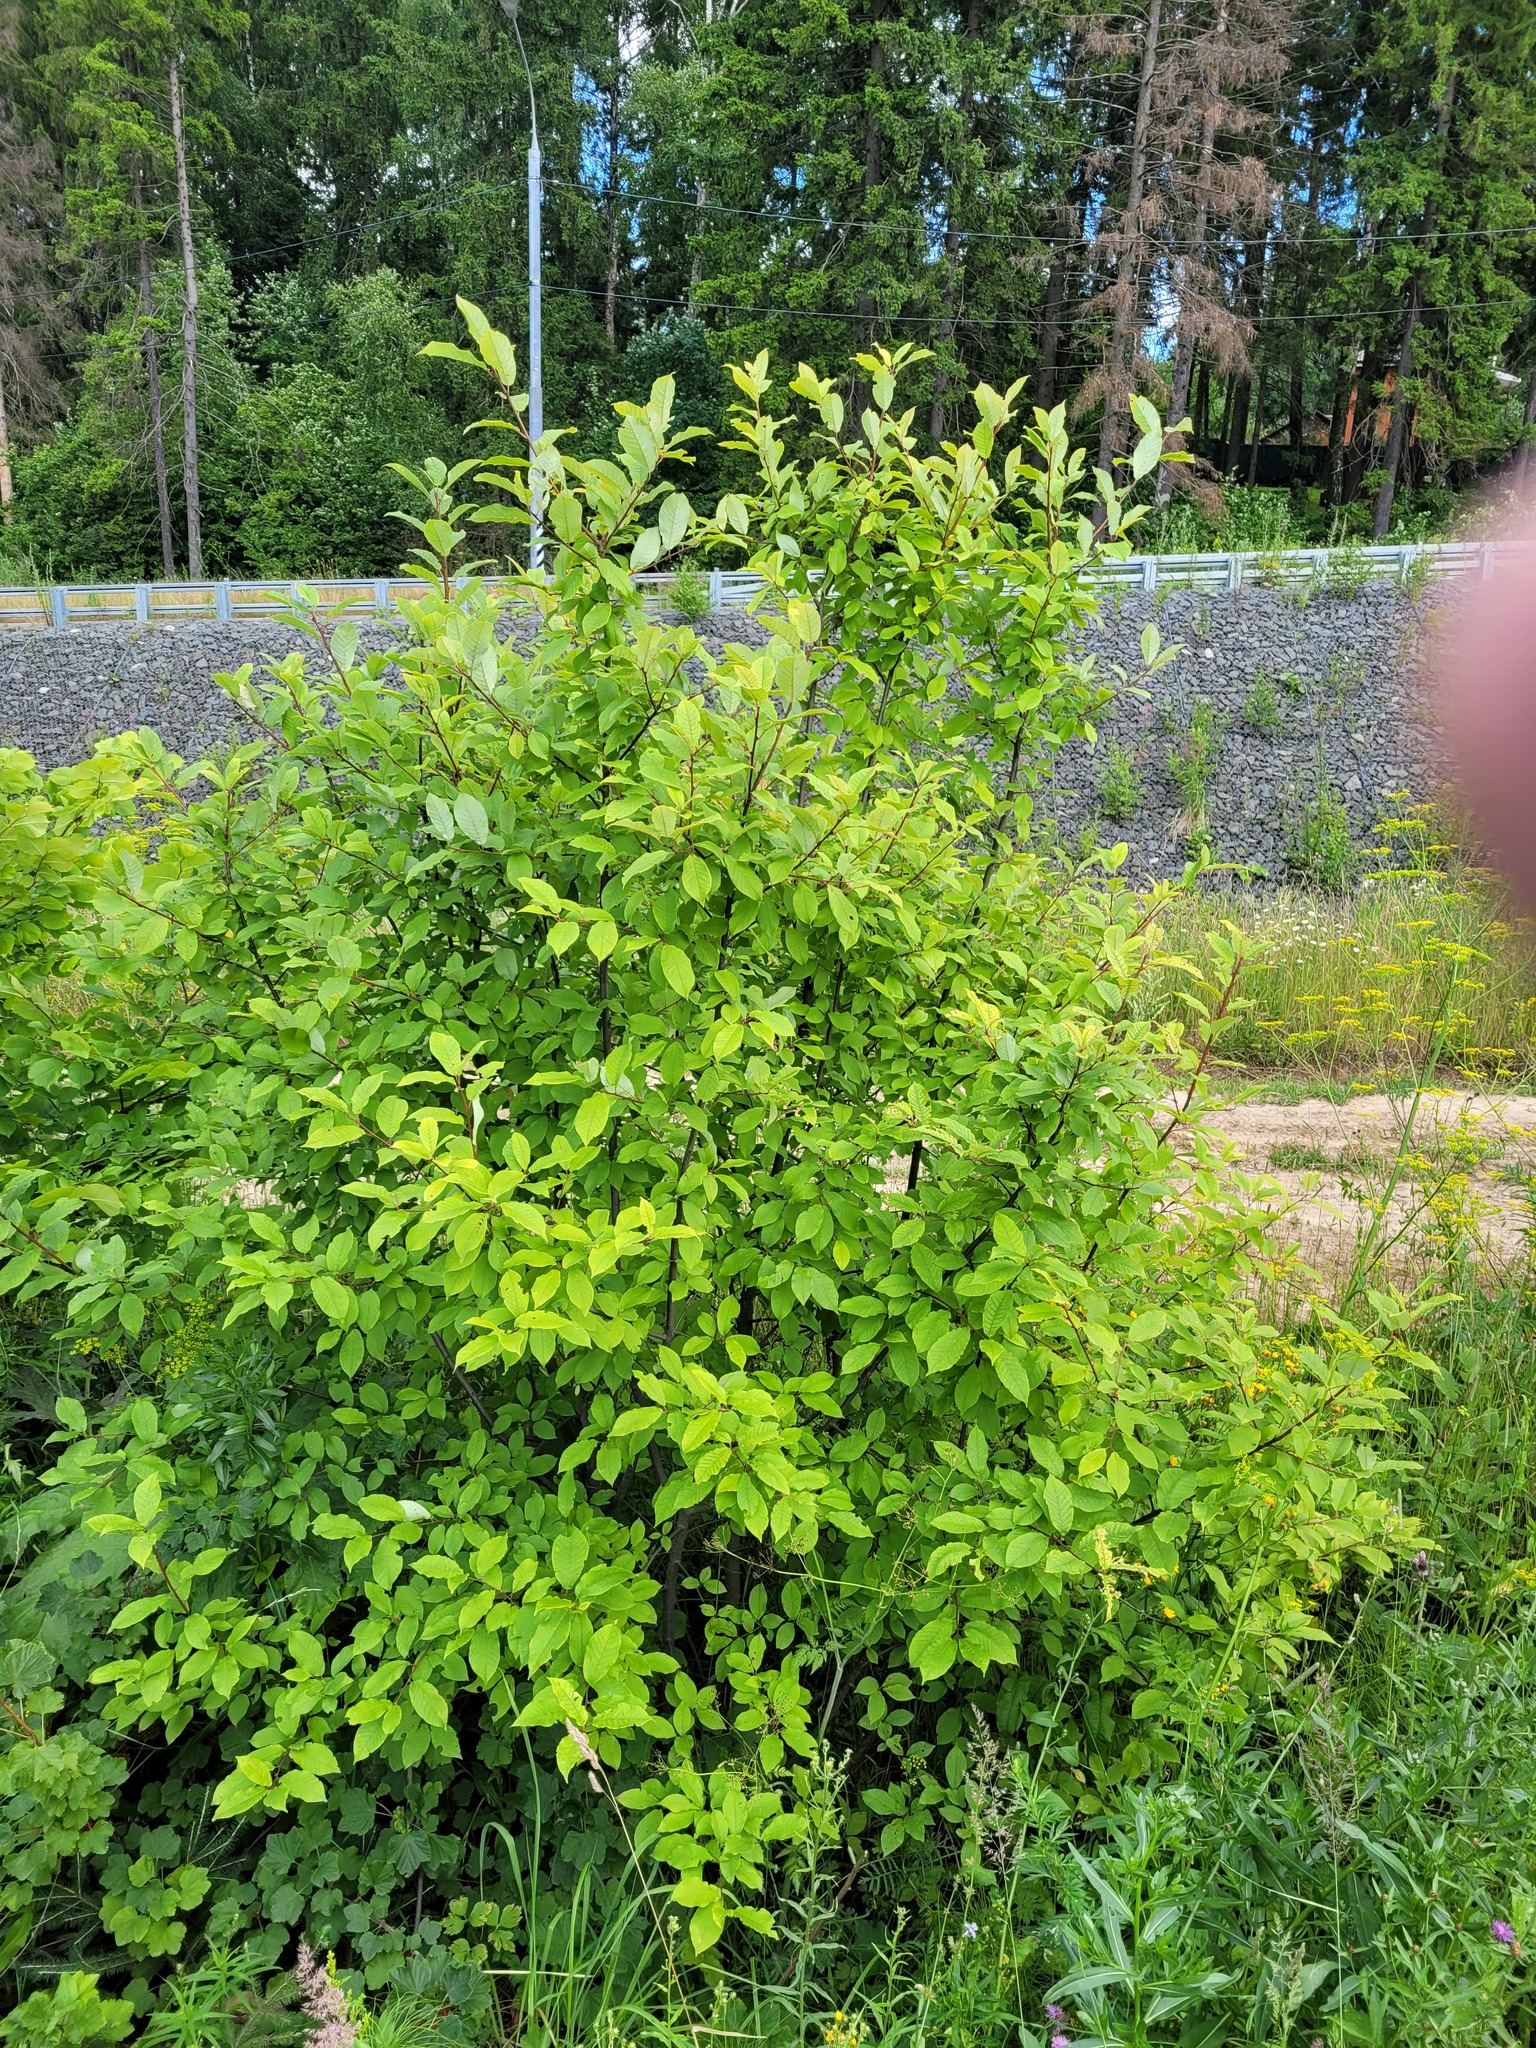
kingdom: Plantae
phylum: Tracheophyta
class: Magnoliopsida
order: Rosales
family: Rosaceae
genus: Prunus
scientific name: Prunus padus
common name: Bird cherry
